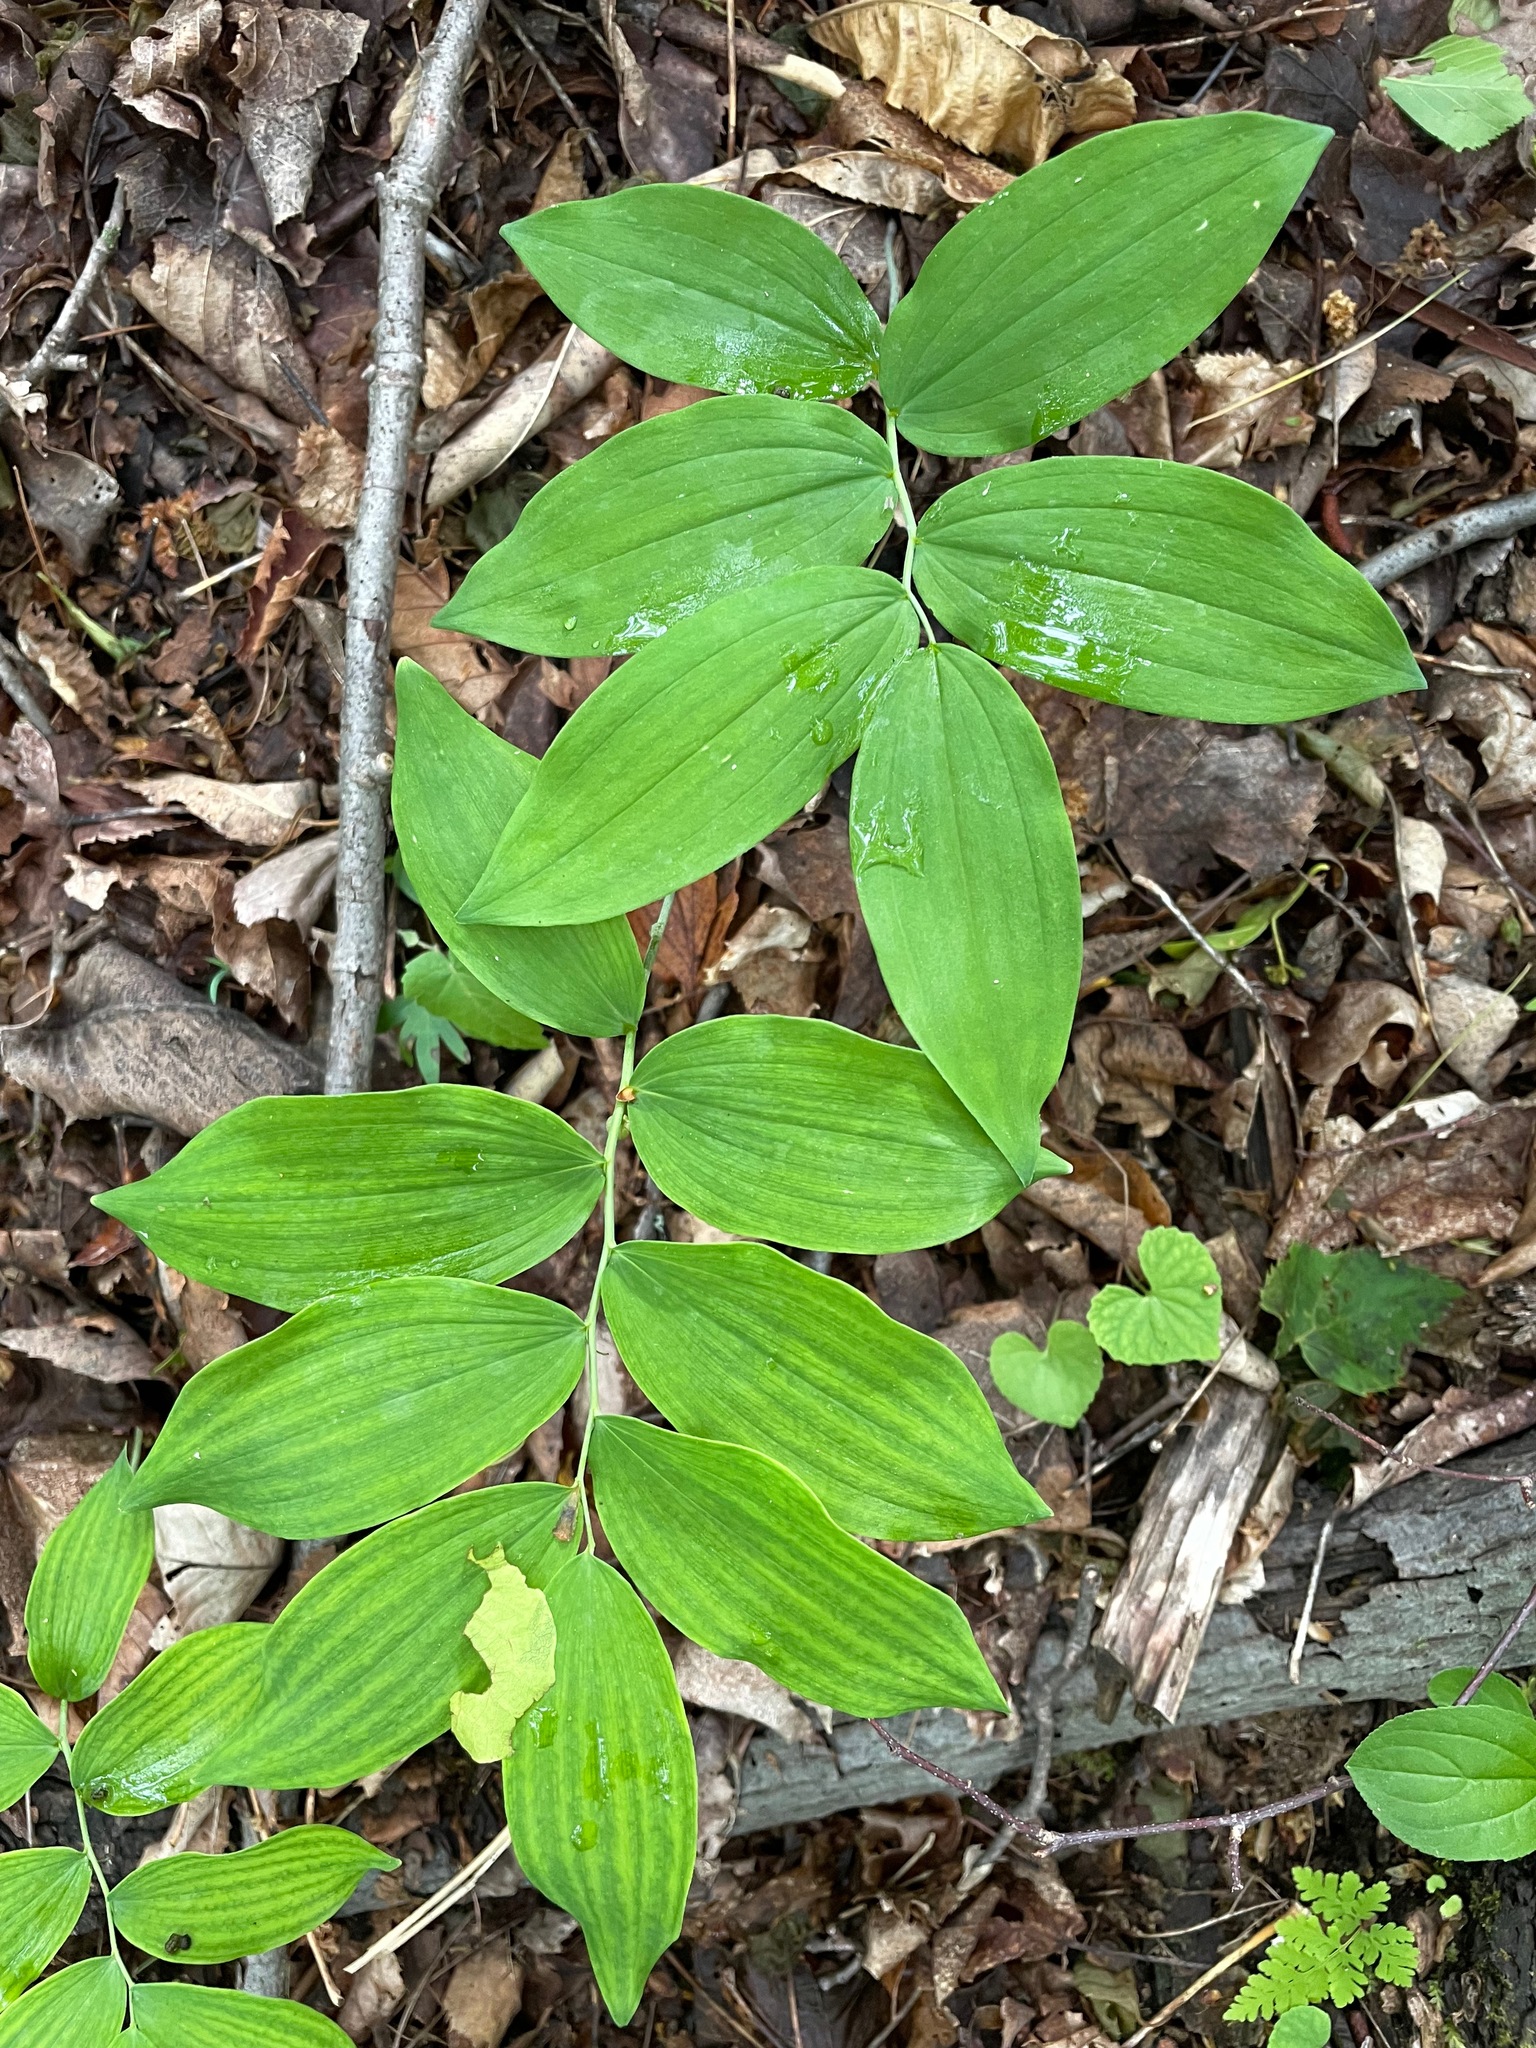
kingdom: Plantae
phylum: Tracheophyta
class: Liliopsida
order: Asparagales
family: Asparagaceae
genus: Polygonatum
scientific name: Polygonatum pubescens
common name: Downy solomon's seal
